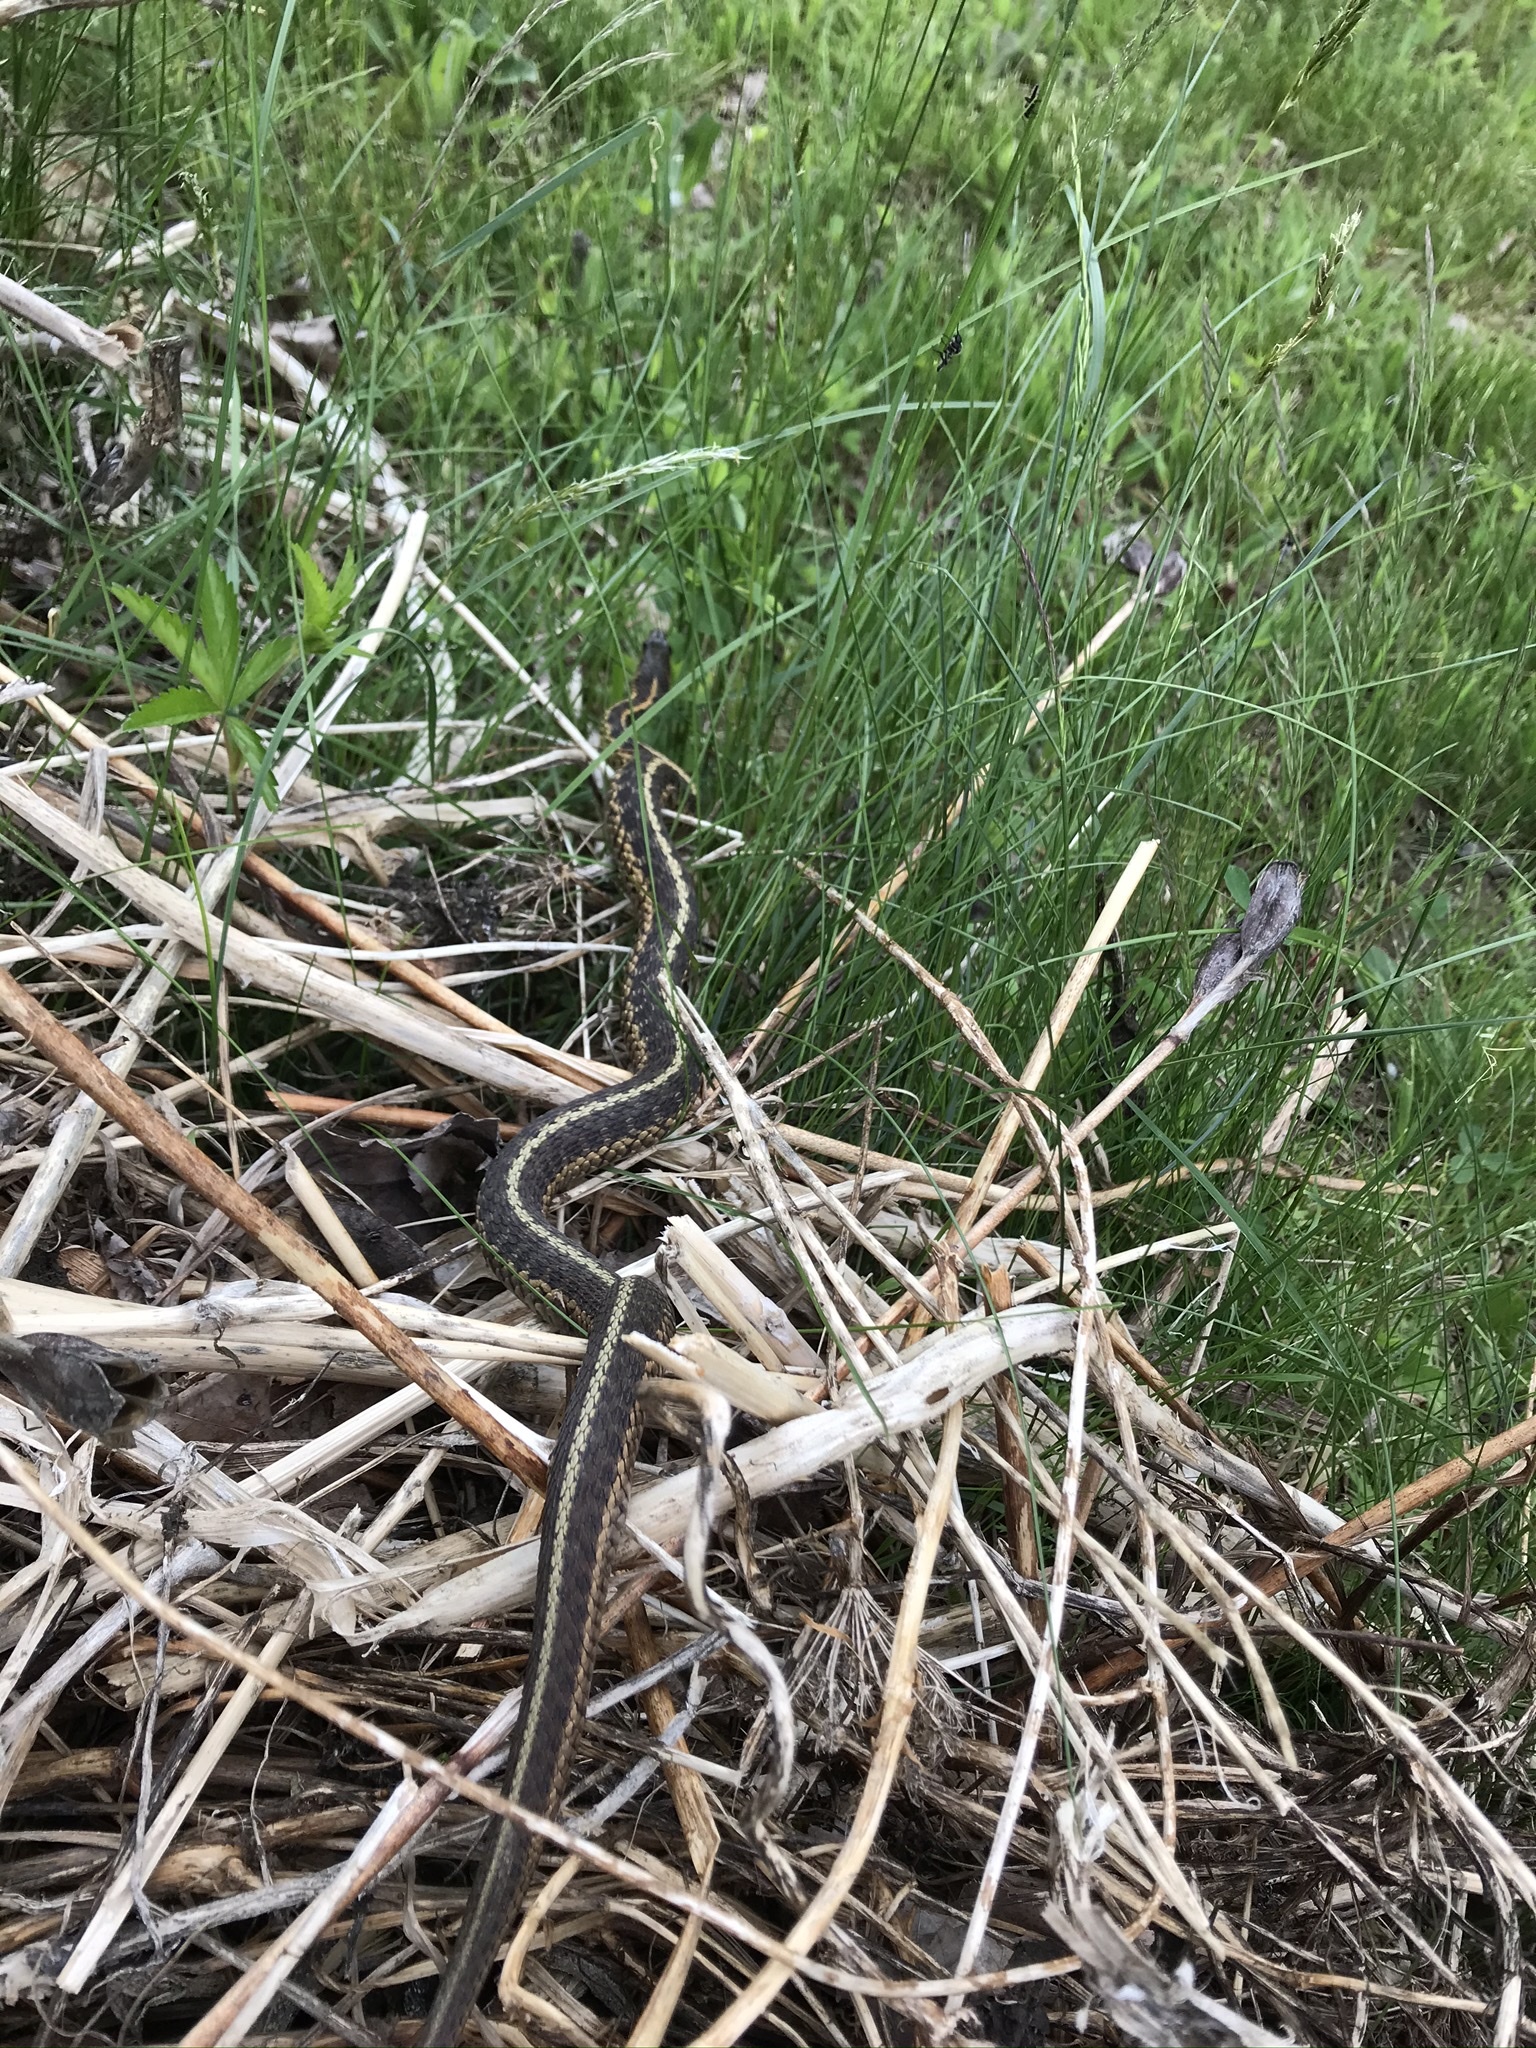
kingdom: Animalia
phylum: Chordata
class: Squamata
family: Colubridae
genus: Thamnophis
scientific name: Thamnophis sirtalis
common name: Common garter snake
